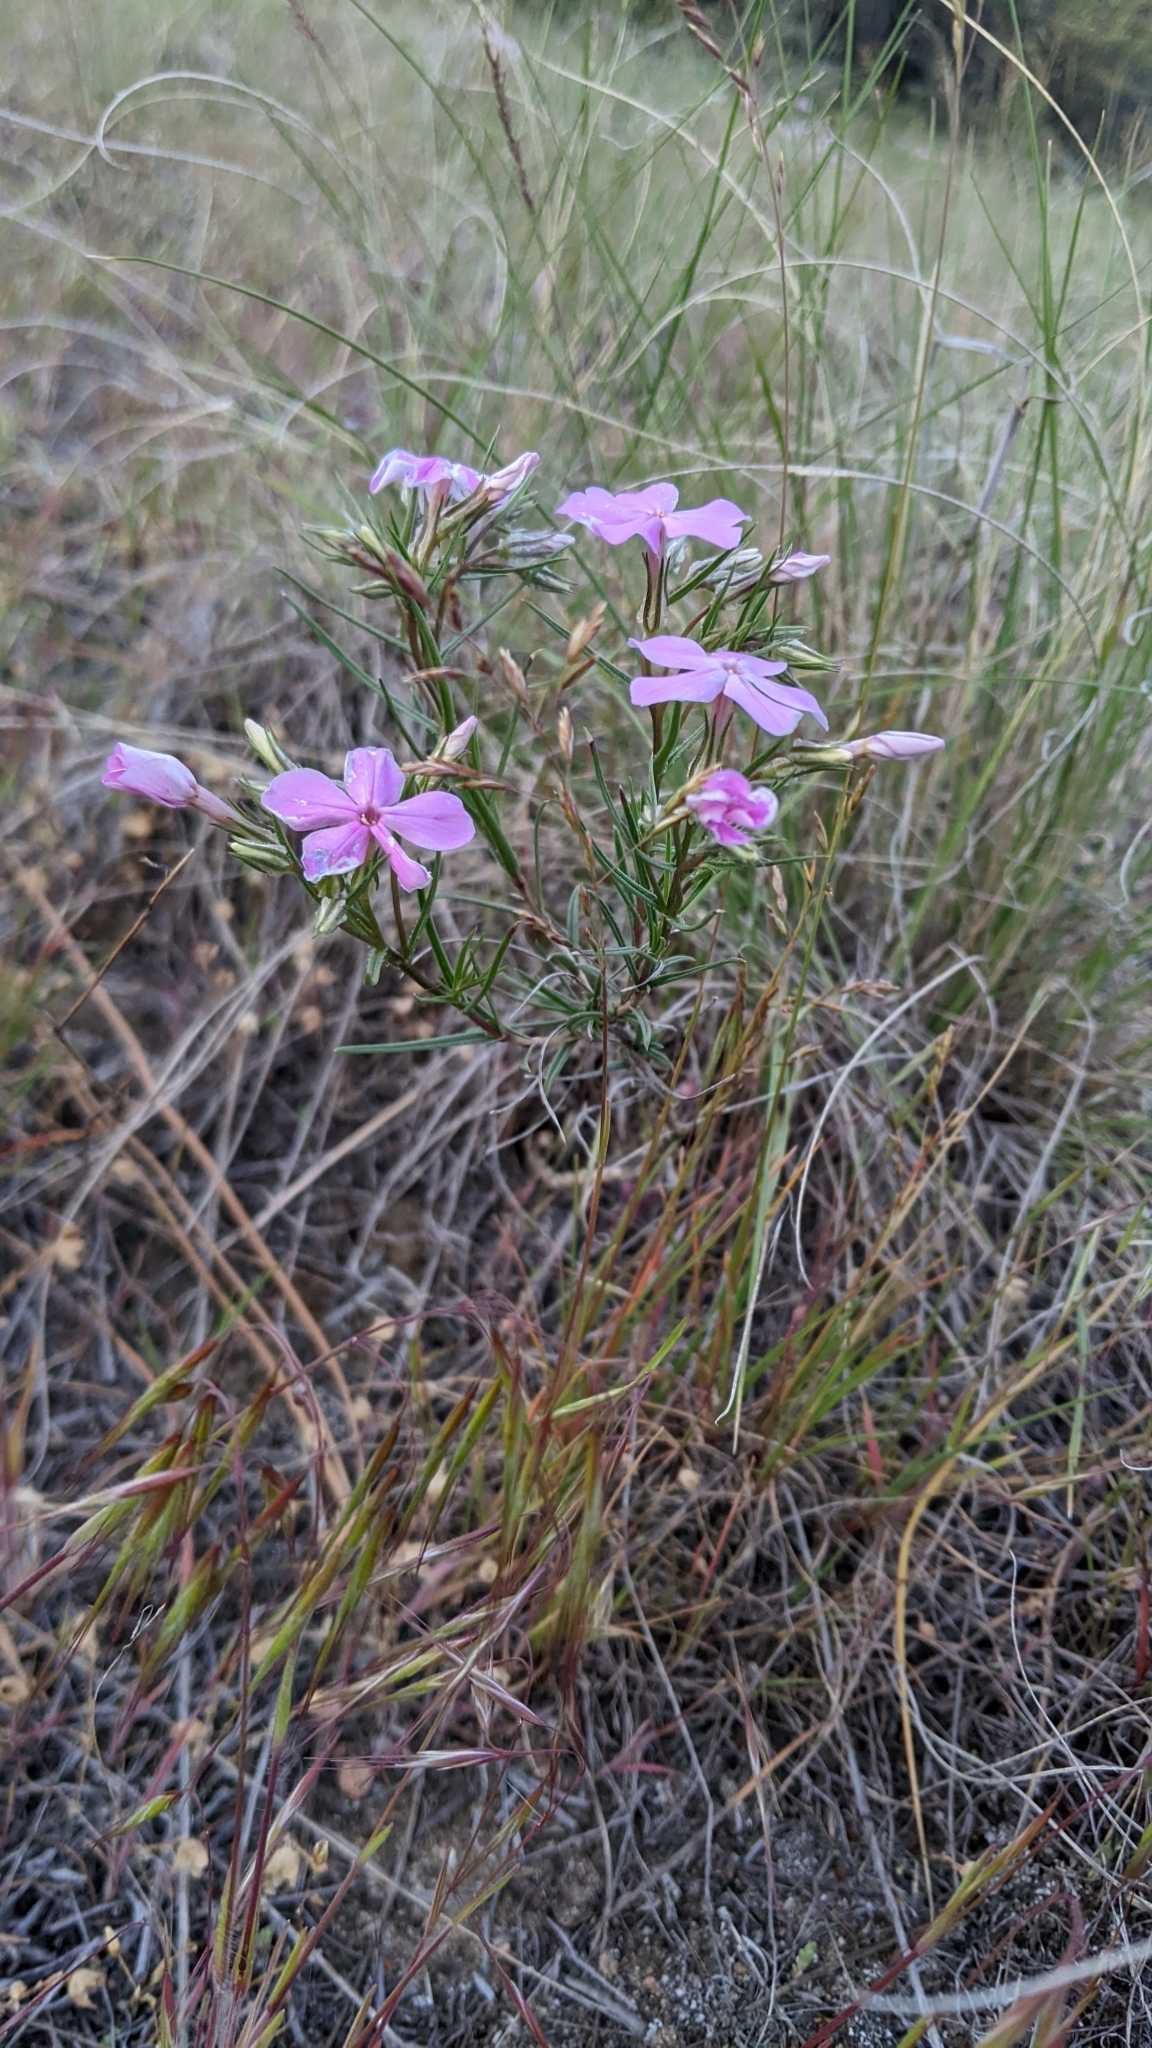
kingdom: Plantae
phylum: Tracheophyta
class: Magnoliopsida
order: Ericales
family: Polemoniaceae
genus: Phlox
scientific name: Phlox longifolia
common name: Longleaf phlox
